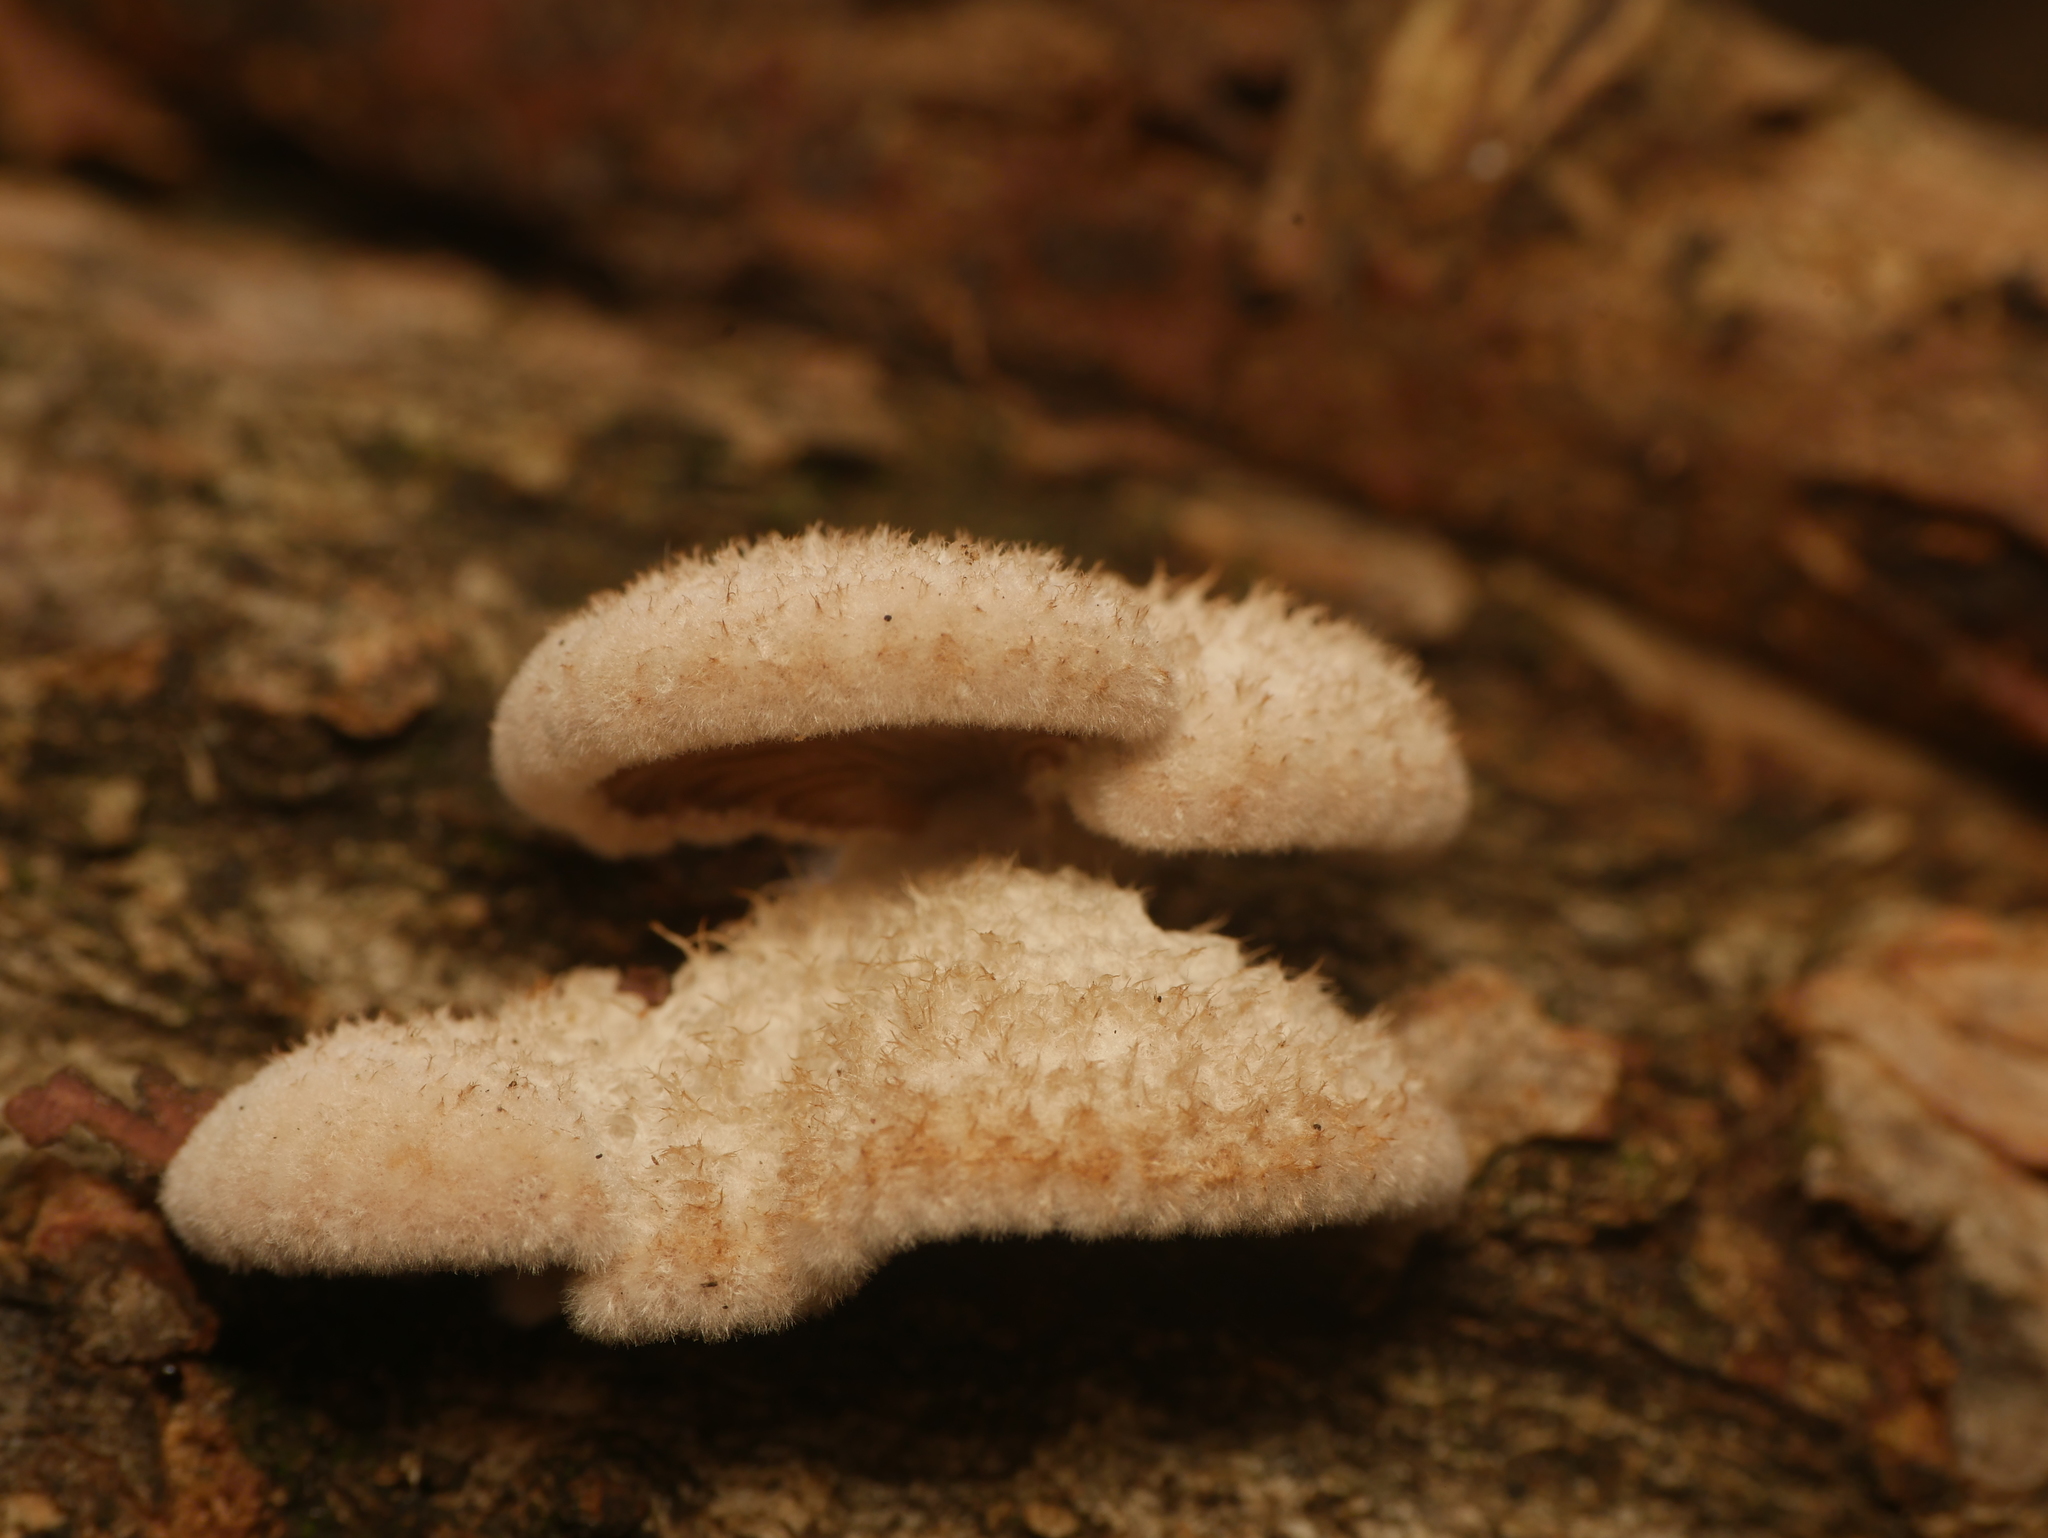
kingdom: Fungi
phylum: Basidiomycota
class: Agaricomycetes
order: Agaricales
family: Schizophyllaceae
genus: Schizophyllum
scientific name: Schizophyllum commune
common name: Common porecrust
